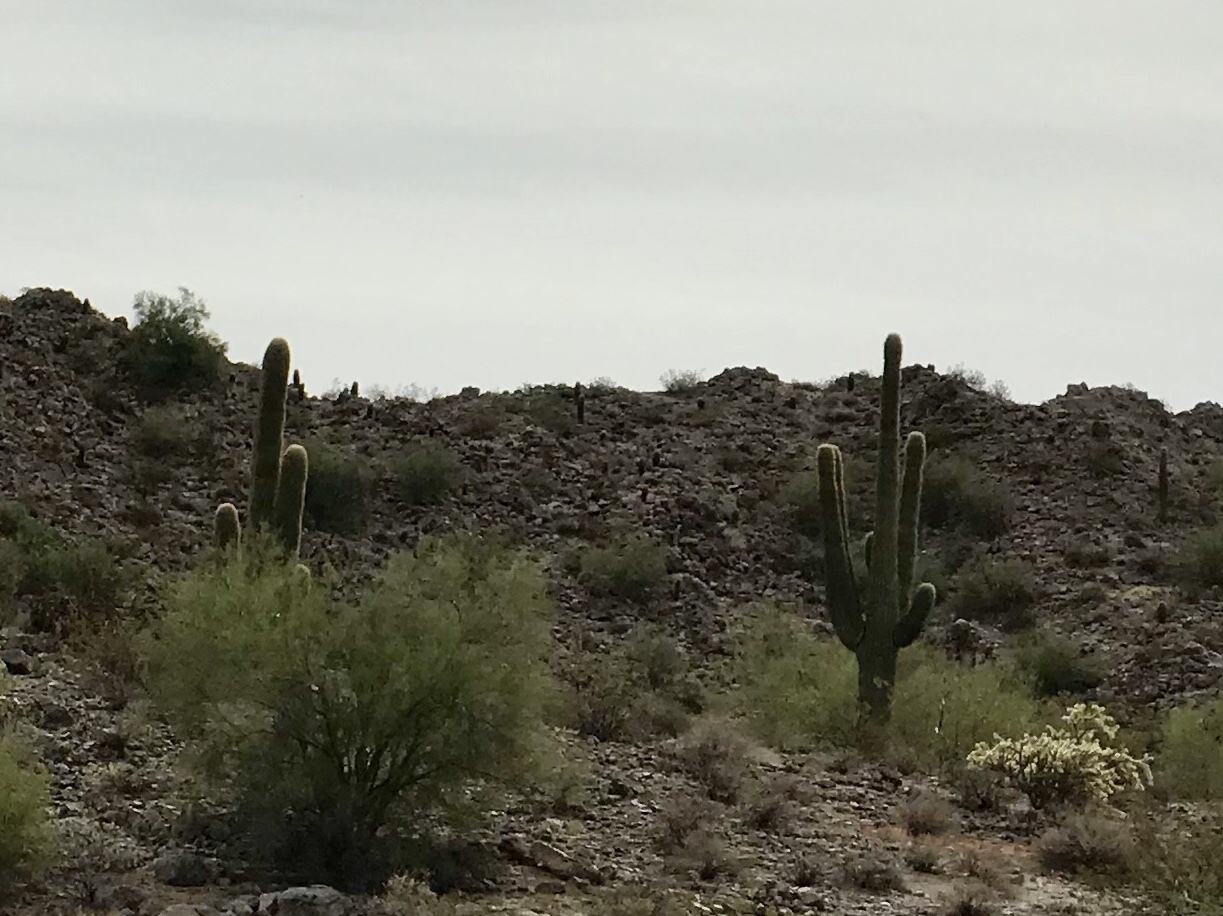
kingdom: Plantae
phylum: Tracheophyta
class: Magnoliopsida
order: Caryophyllales
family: Cactaceae
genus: Carnegiea
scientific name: Carnegiea gigantea
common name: Saguaro
